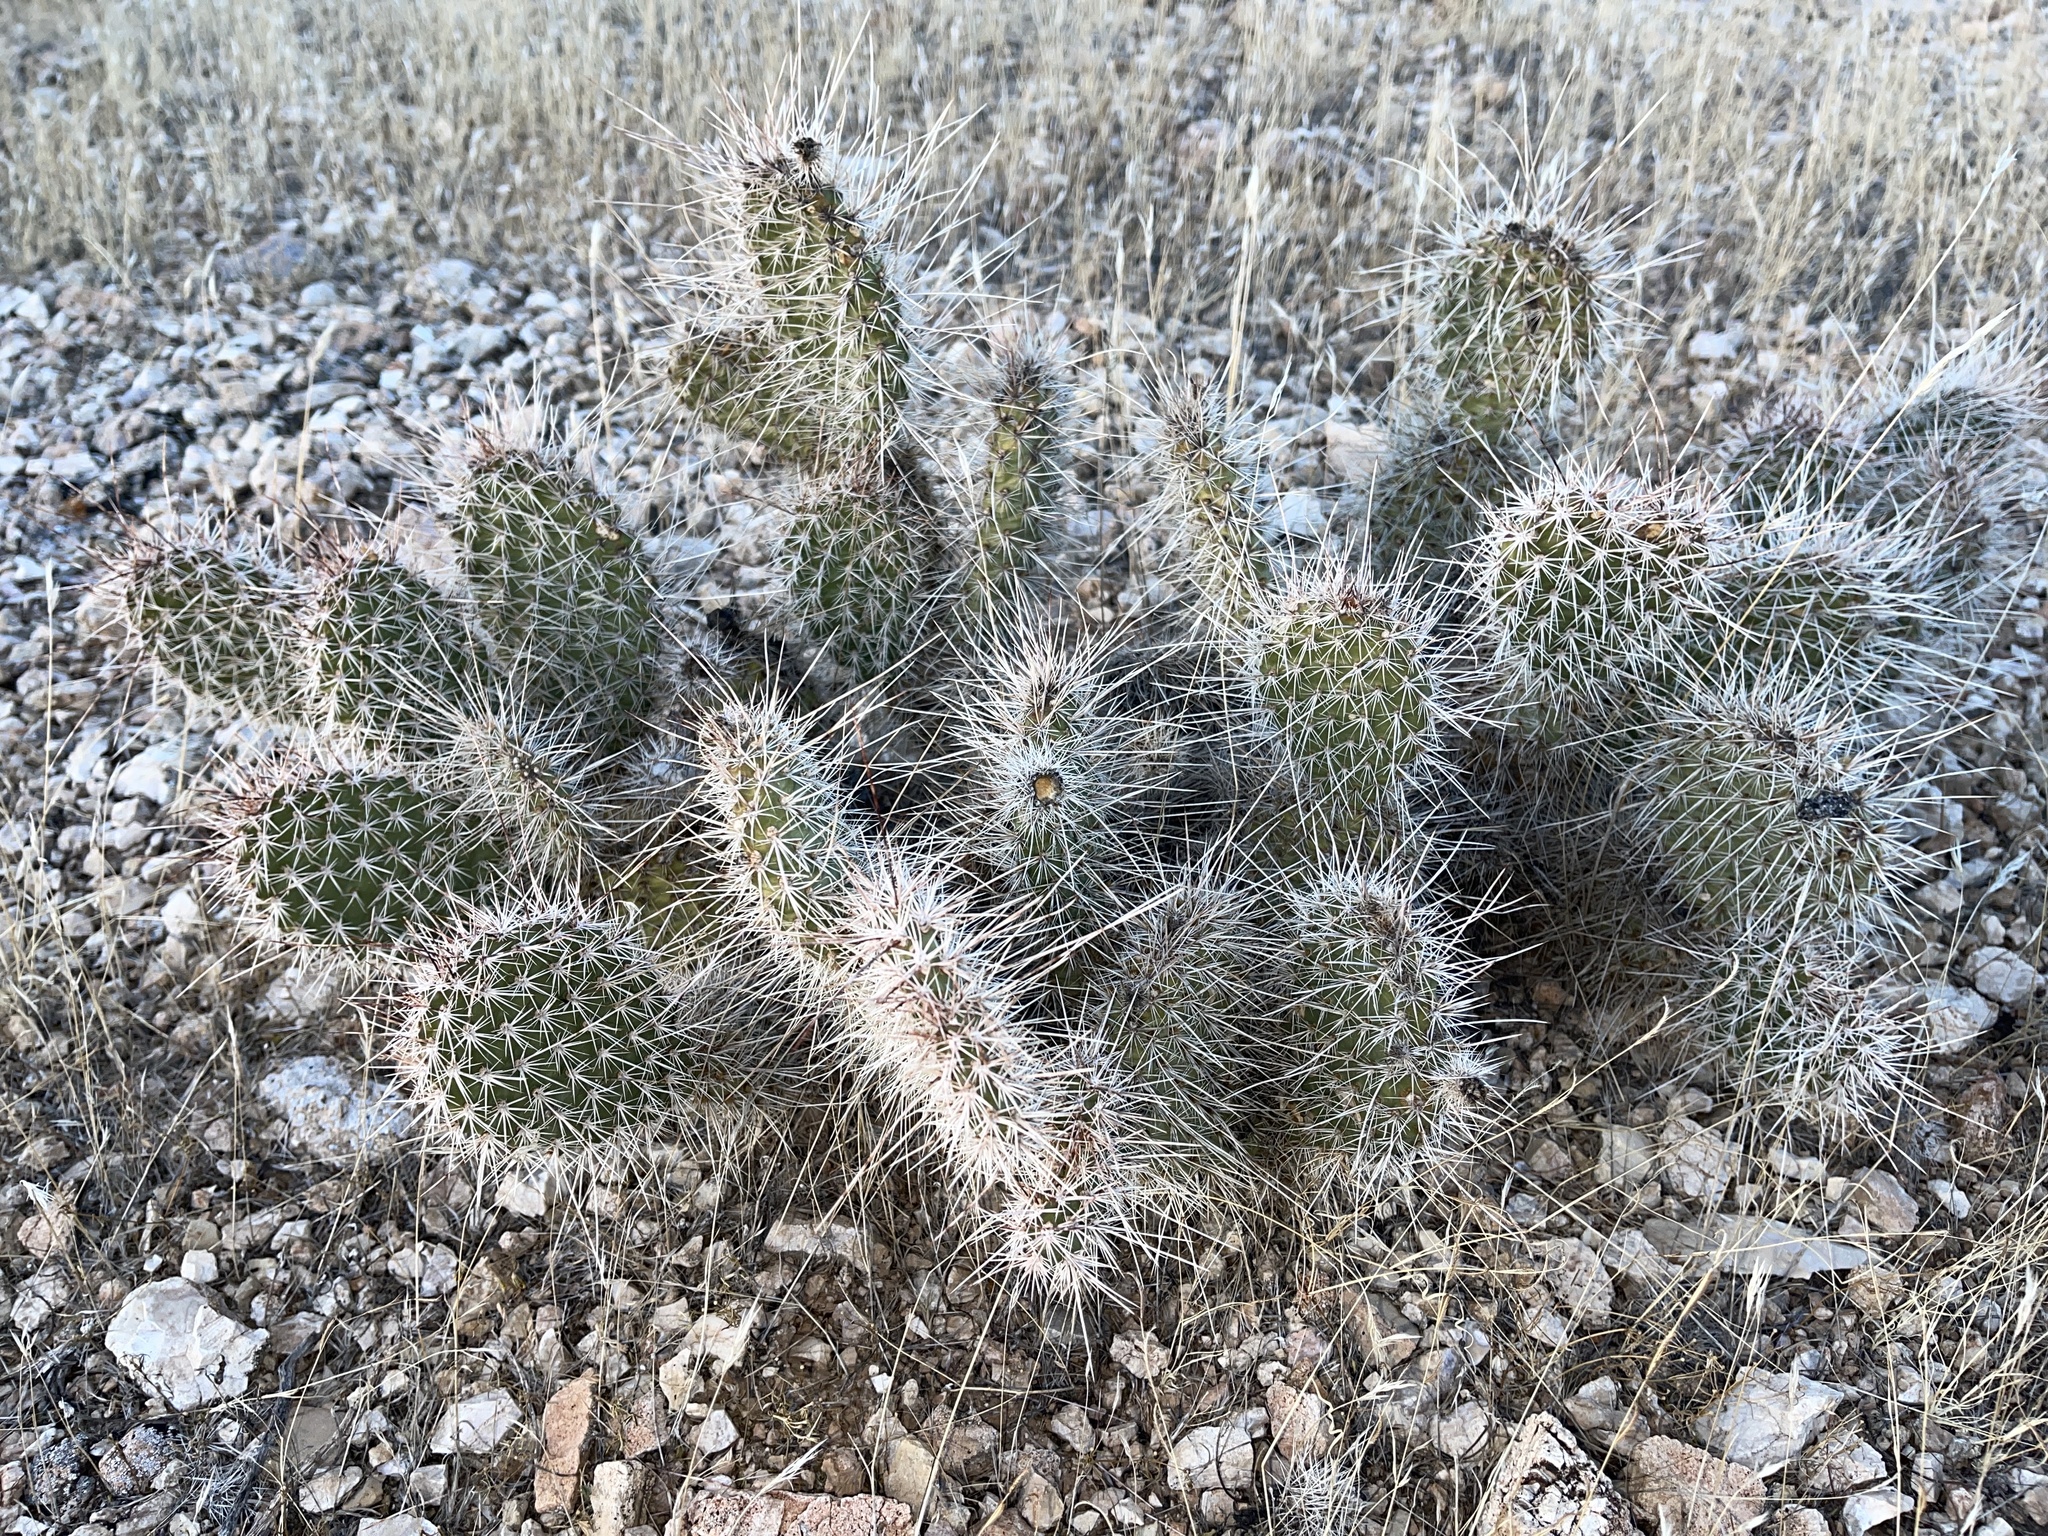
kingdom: Plantae
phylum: Tracheophyta
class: Magnoliopsida
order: Caryophyllales
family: Cactaceae
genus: Opuntia
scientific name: Opuntia polyacantha
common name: Plains prickly-pear
